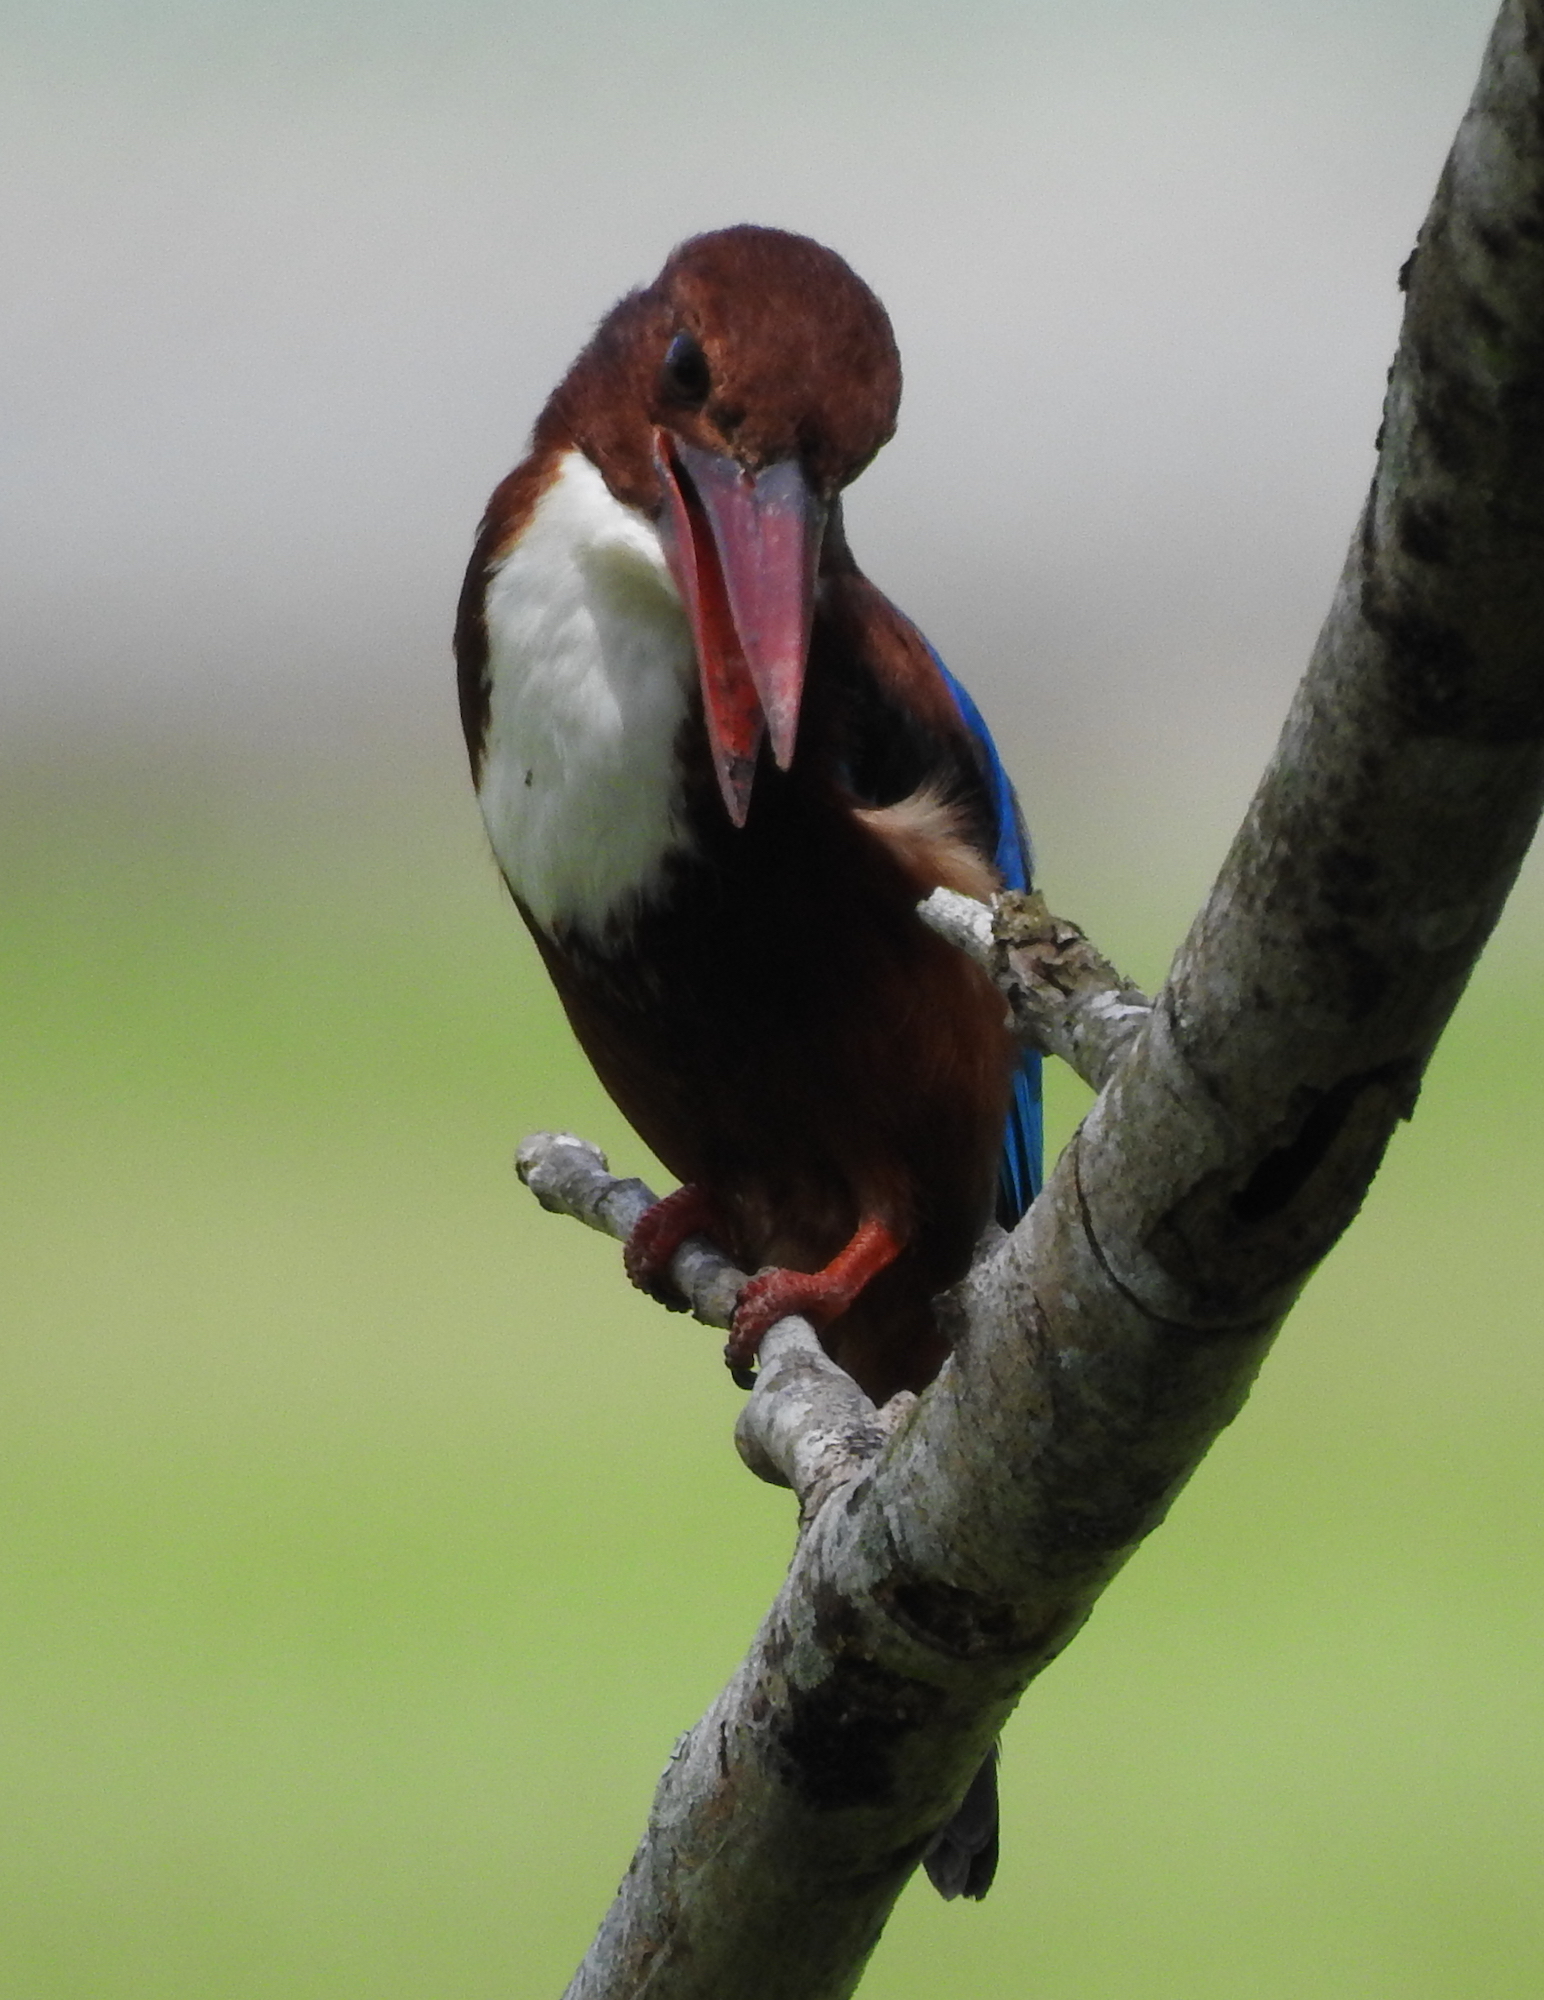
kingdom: Animalia
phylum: Chordata
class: Aves
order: Coraciiformes
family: Alcedinidae
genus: Halcyon
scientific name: Halcyon smyrnensis
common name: White-throated kingfisher
